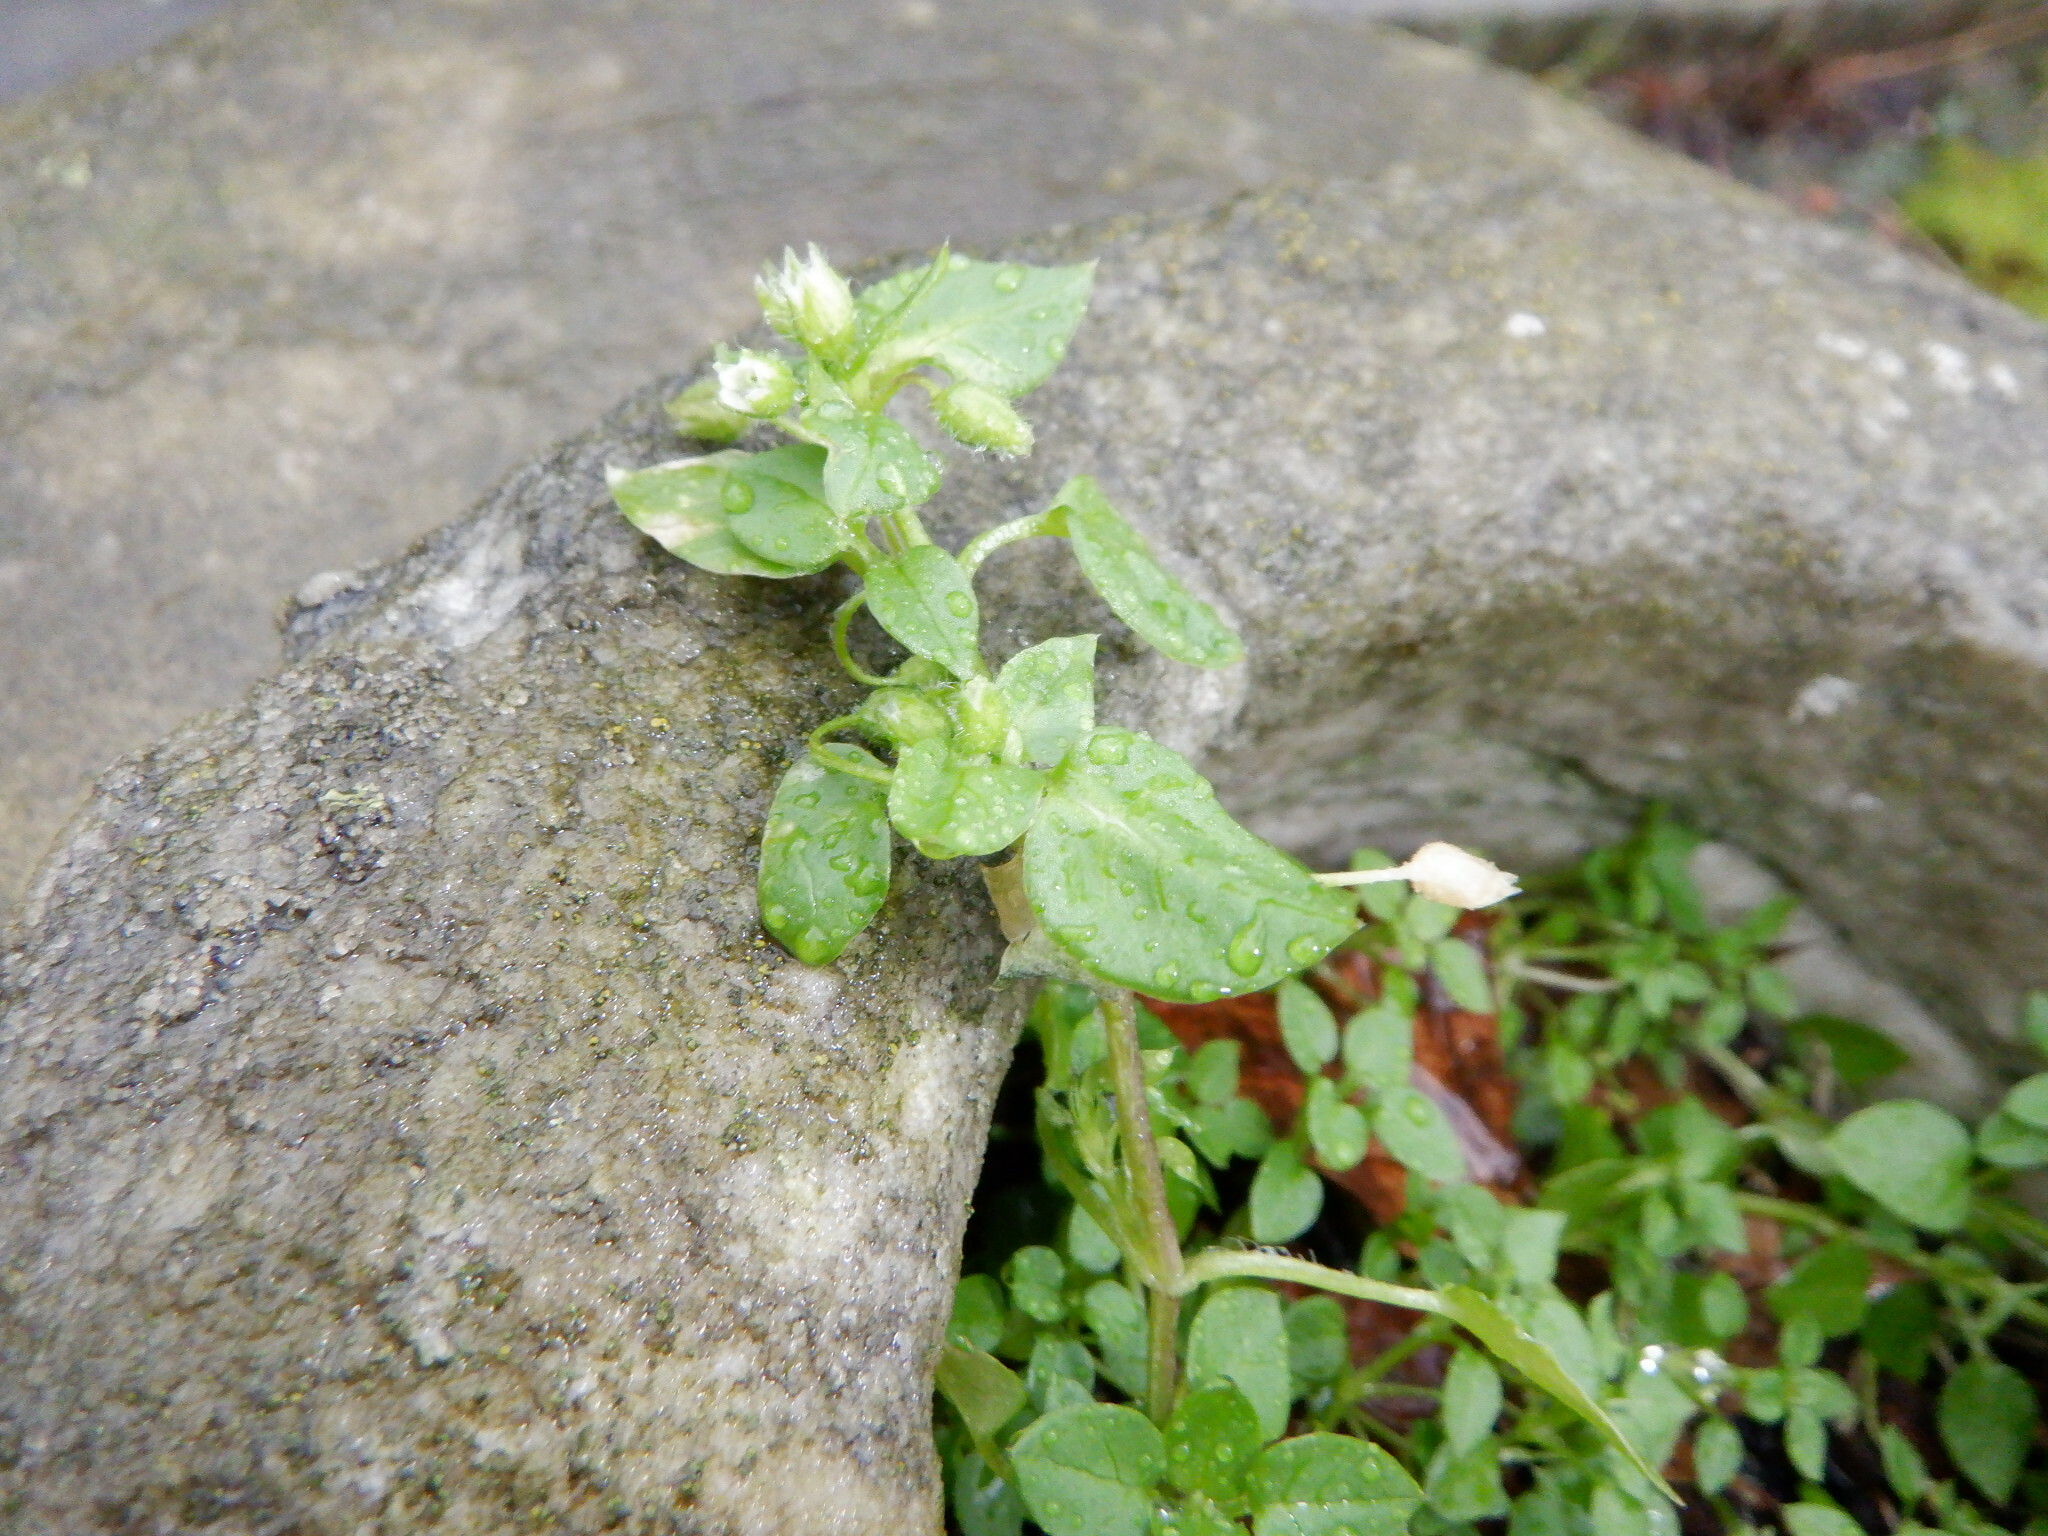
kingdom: Plantae
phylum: Tracheophyta
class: Magnoliopsida
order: Caryophyllales
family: Caryophyllaceae
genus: Stellaria
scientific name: Stellaria media
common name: Common chickweed
